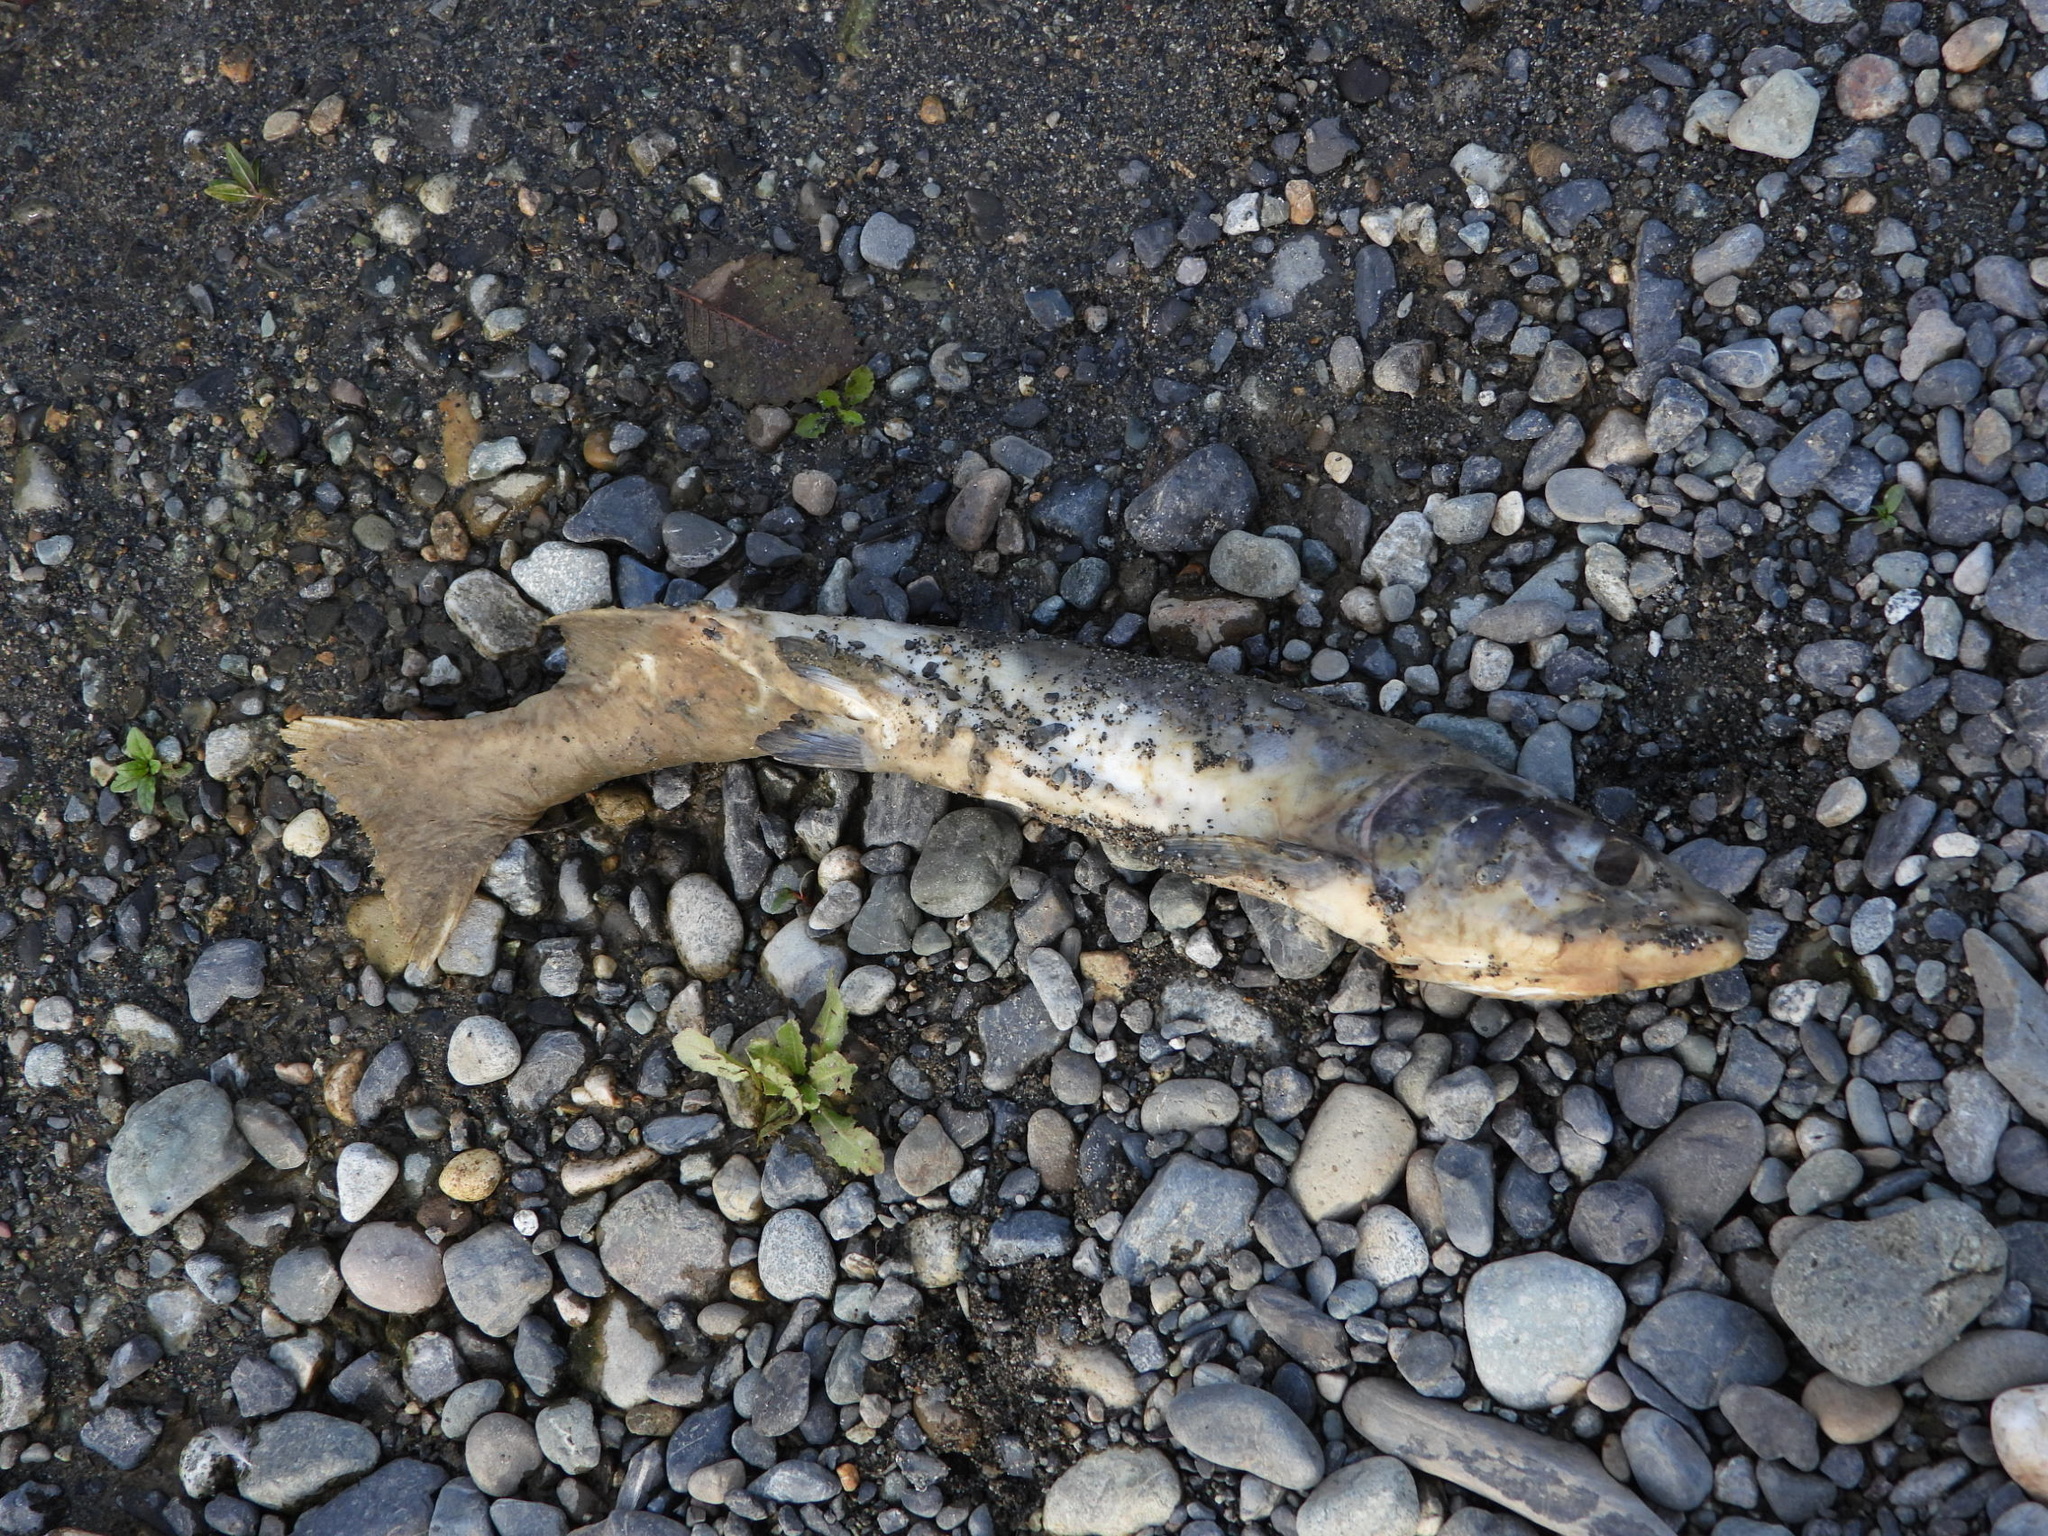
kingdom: Animalia
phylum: Chordata
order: Salmoniformes
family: Salmonidae
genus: Oncorhynchus
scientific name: Oncorhynchus gorbuscha
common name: Humpback salmon
